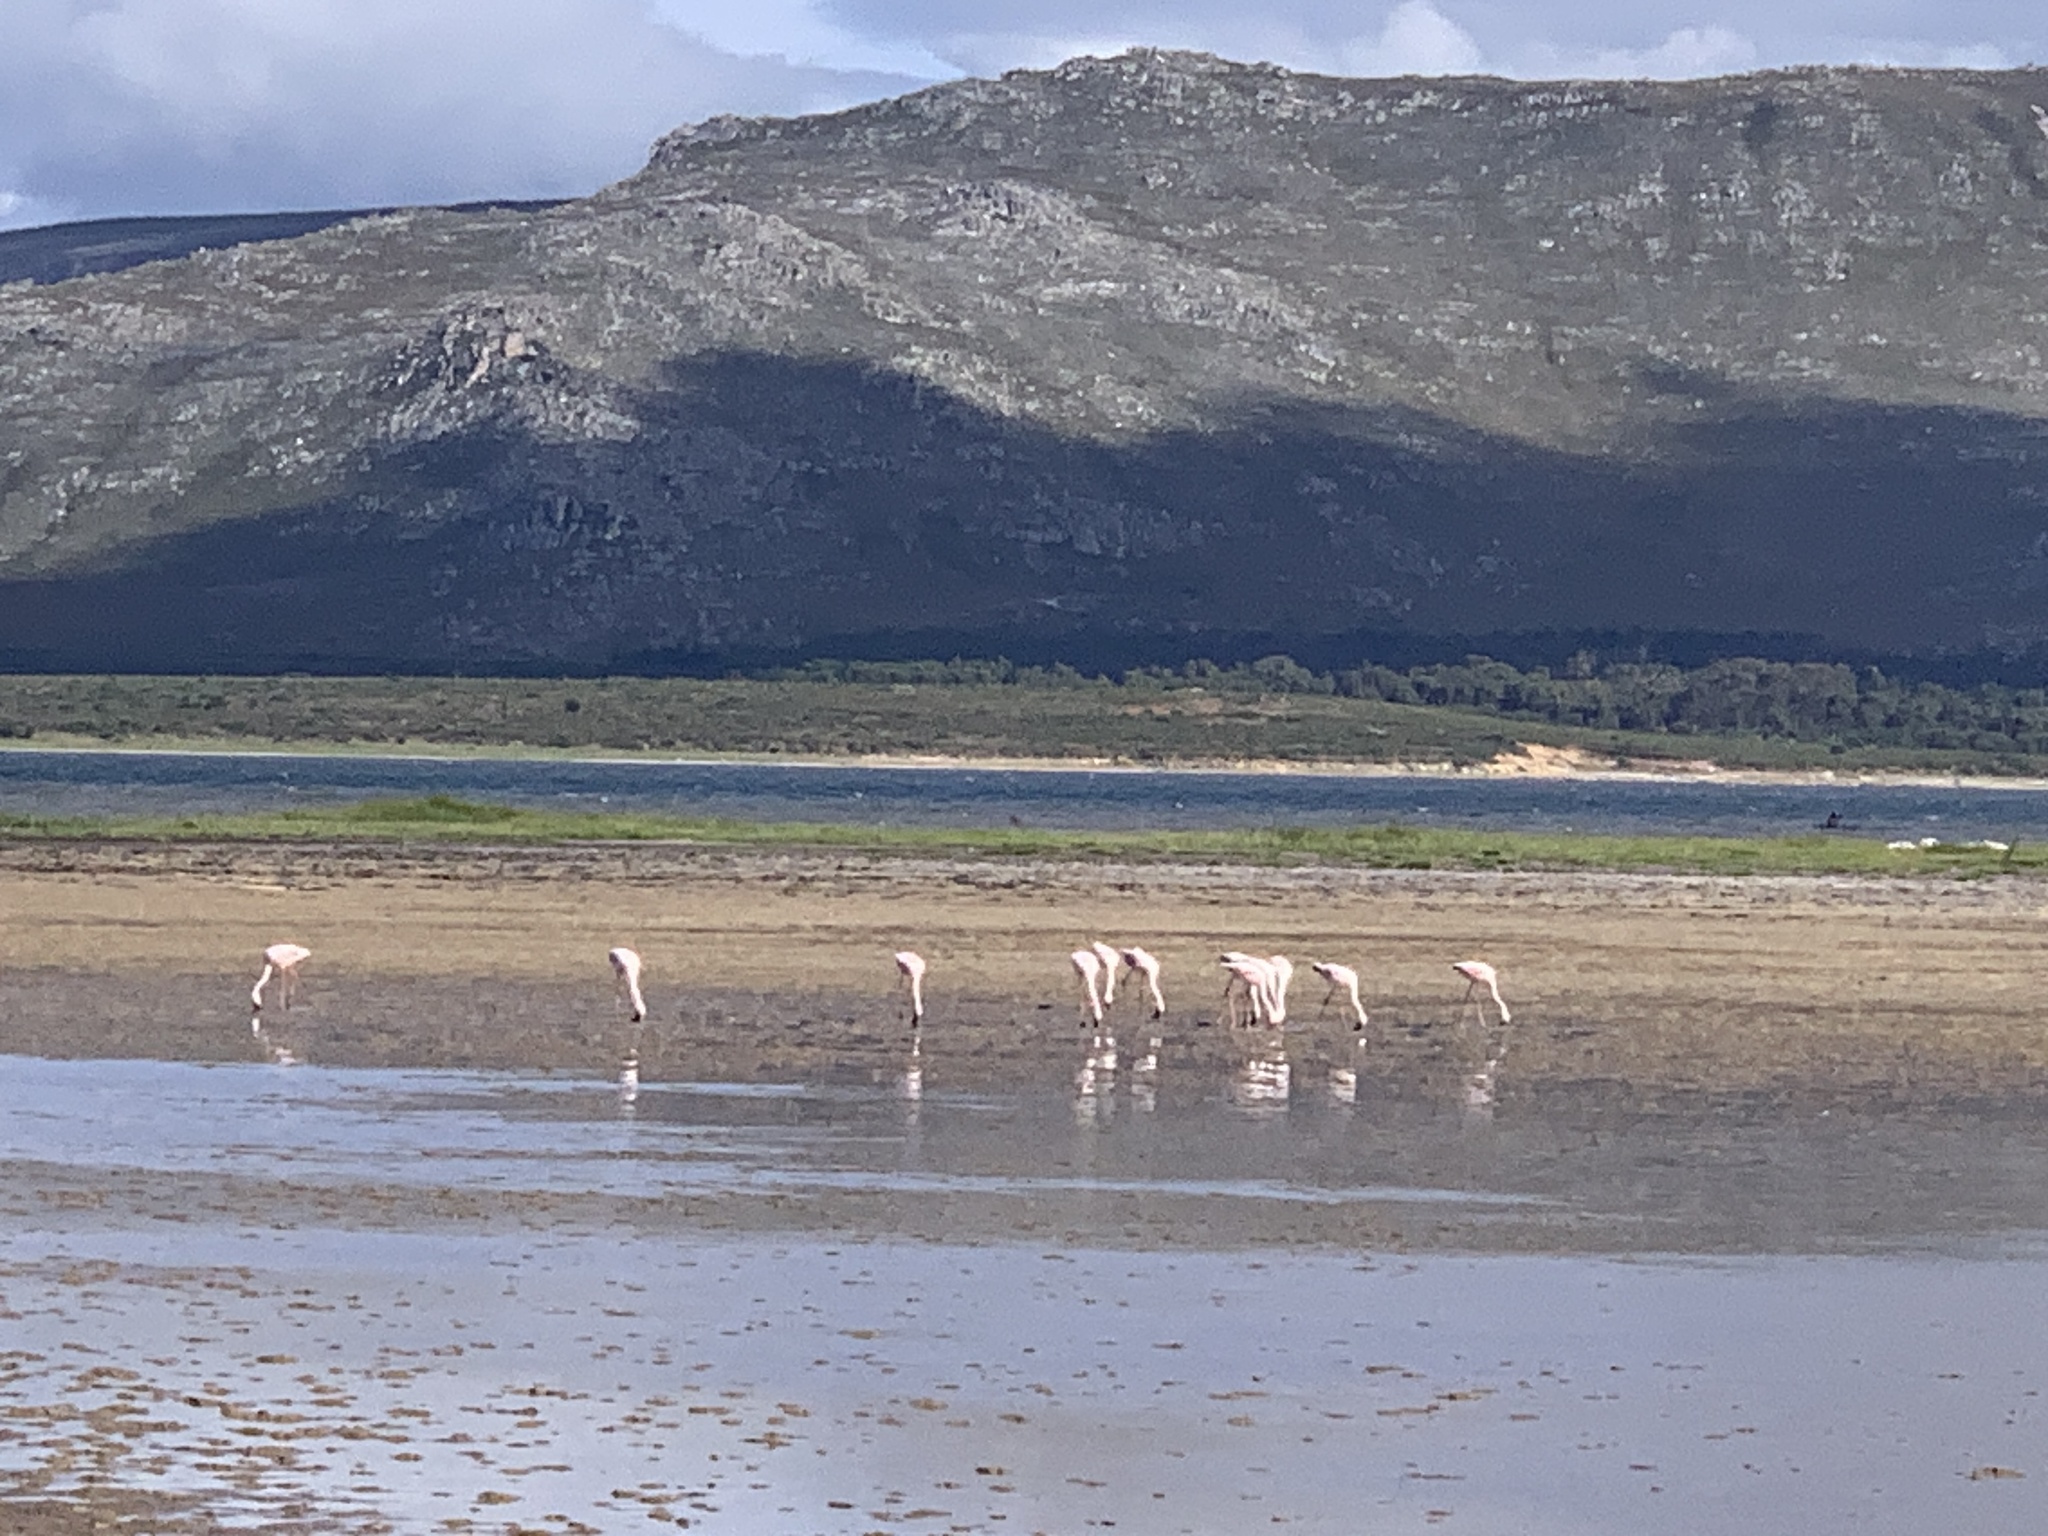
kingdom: Animalia
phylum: Chordata
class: Aves
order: Phoenicopteriformes
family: Phoenicopteridae
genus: Phoeniconaias
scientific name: Phoeniconaias minor
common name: Lesser flamingo
